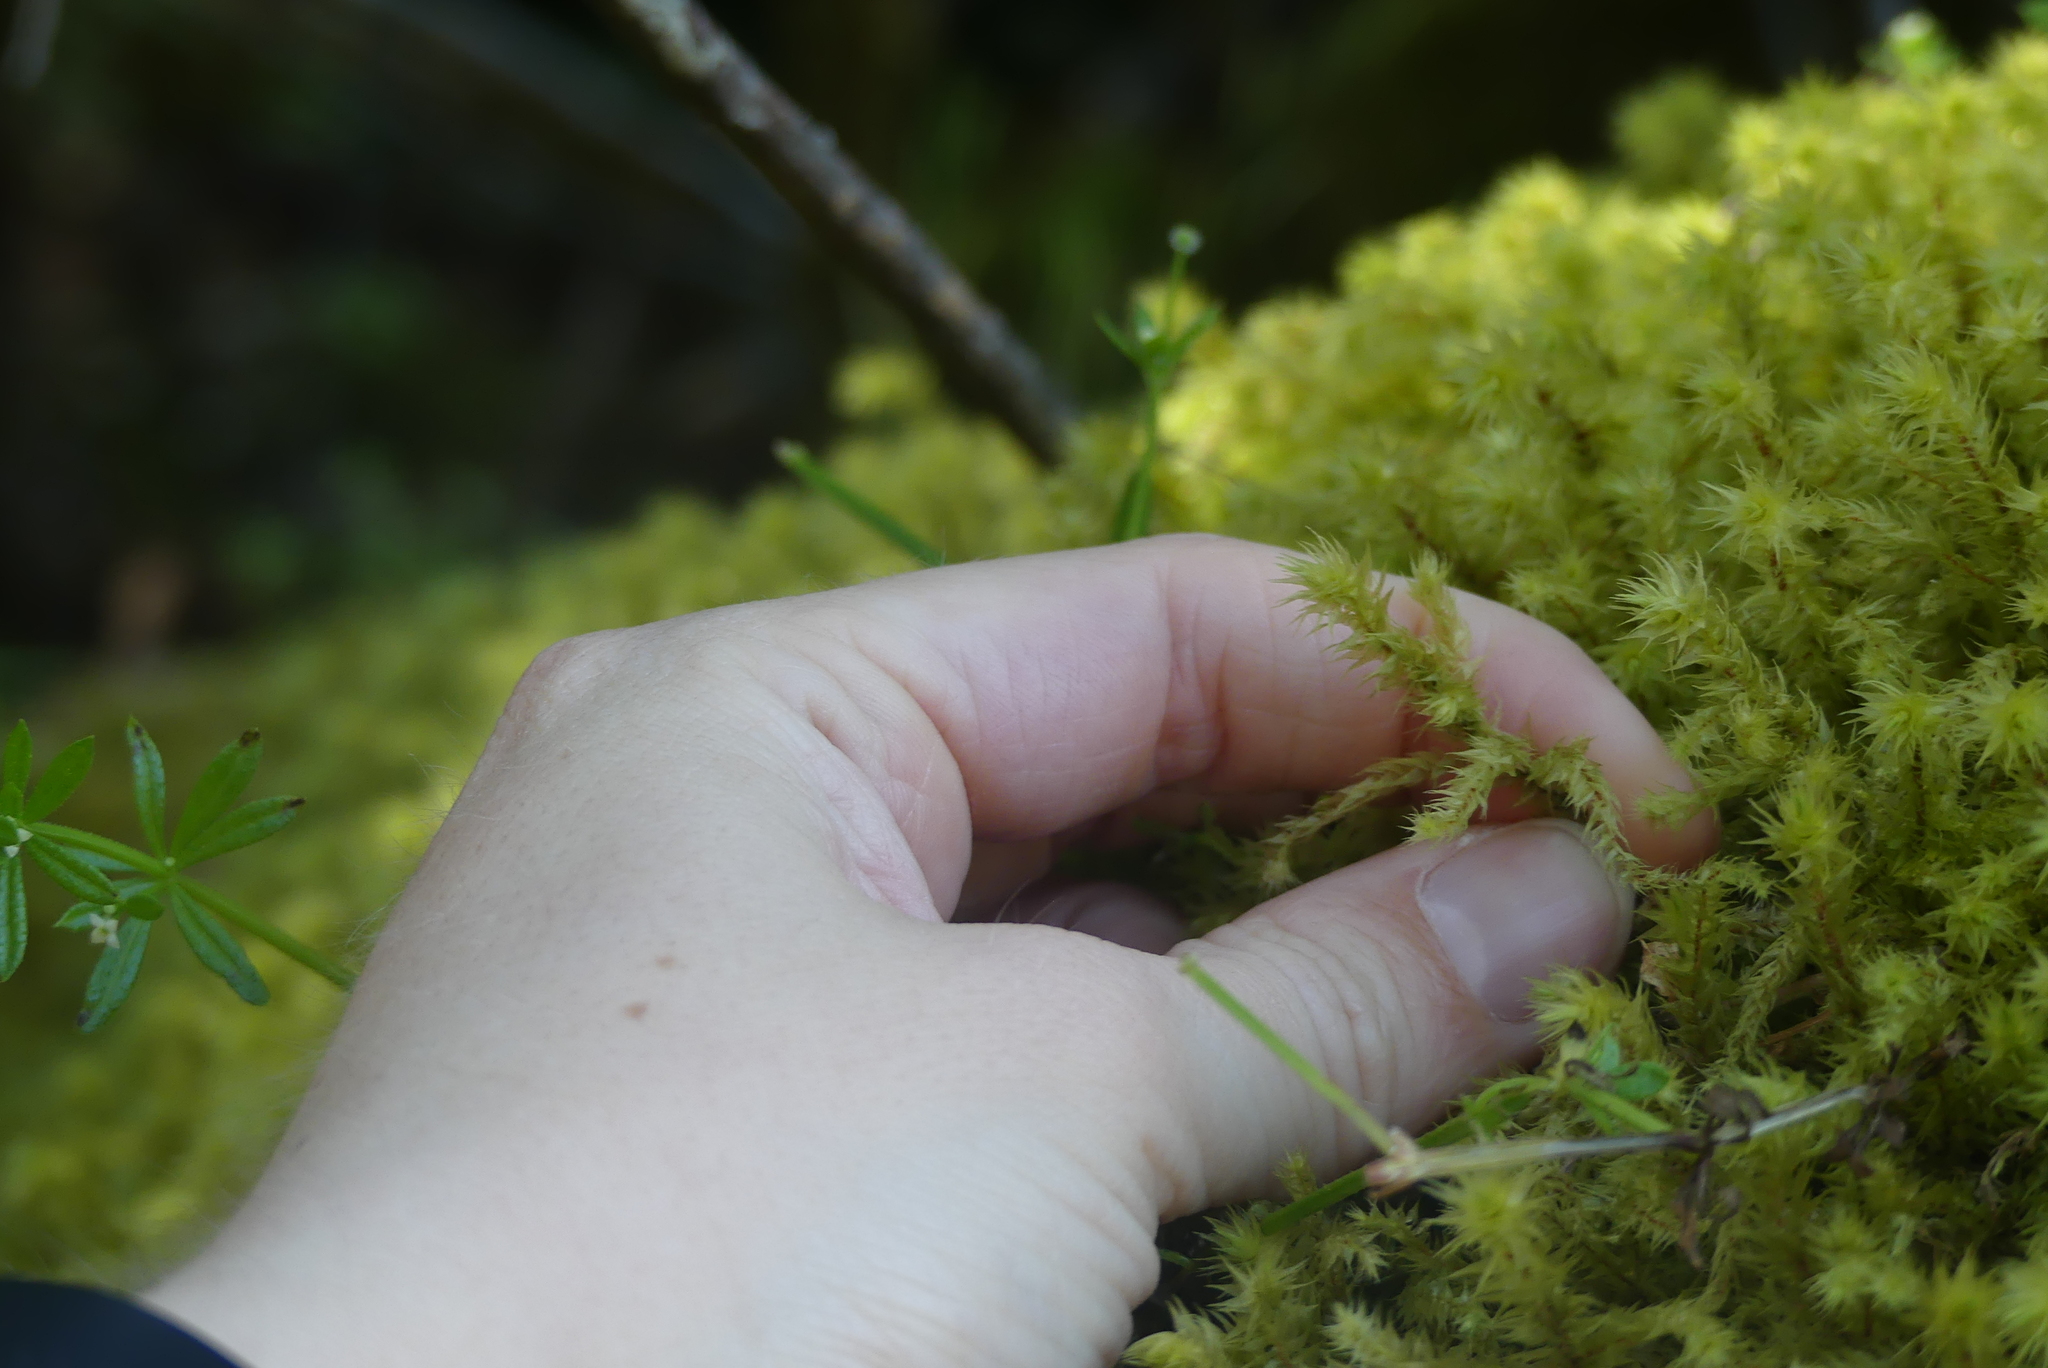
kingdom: Plantae
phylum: Bryophyta
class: Bryopsida
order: Hypnales
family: Hylocomiaceae
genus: Hylocomiadelphus
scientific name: Hylocomiadelphus triquetrus
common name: Rough goose neck moss
